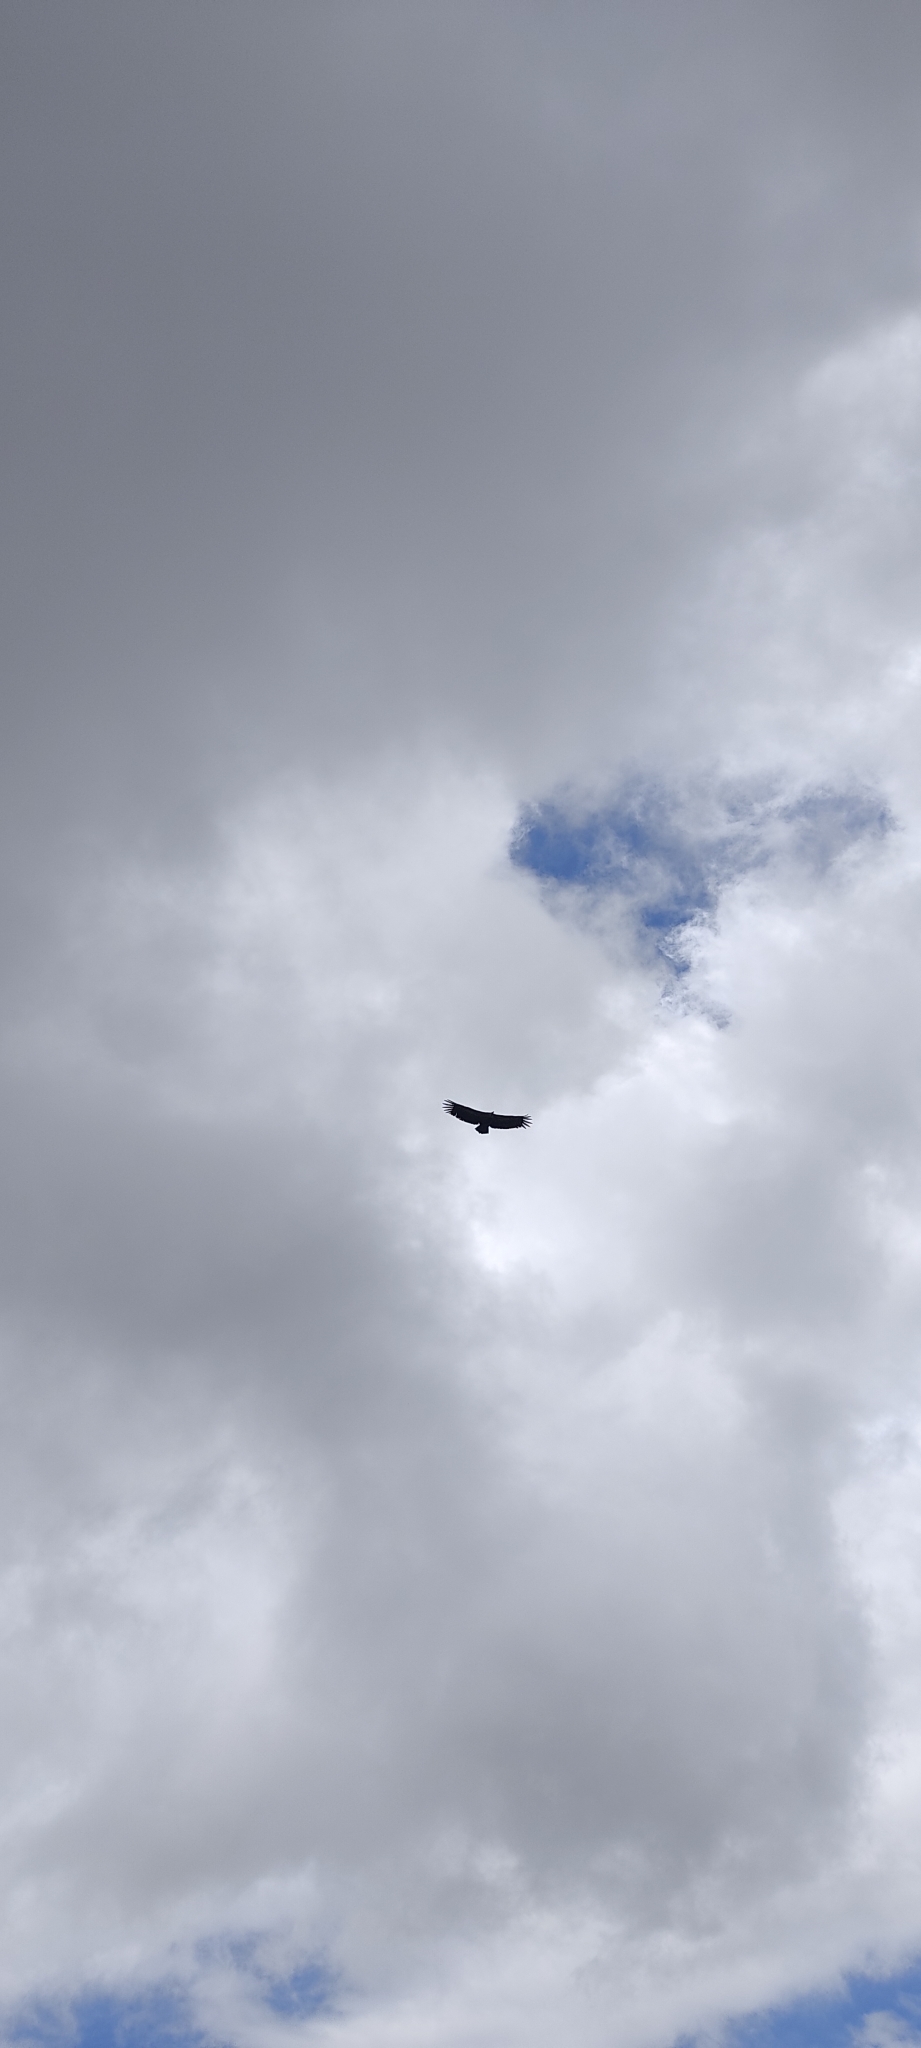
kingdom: Animalia
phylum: Chordata
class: Aves
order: Accipitriformes
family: Accipitridae
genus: Gyps
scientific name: Gyps fulvus
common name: Griffon vulture
